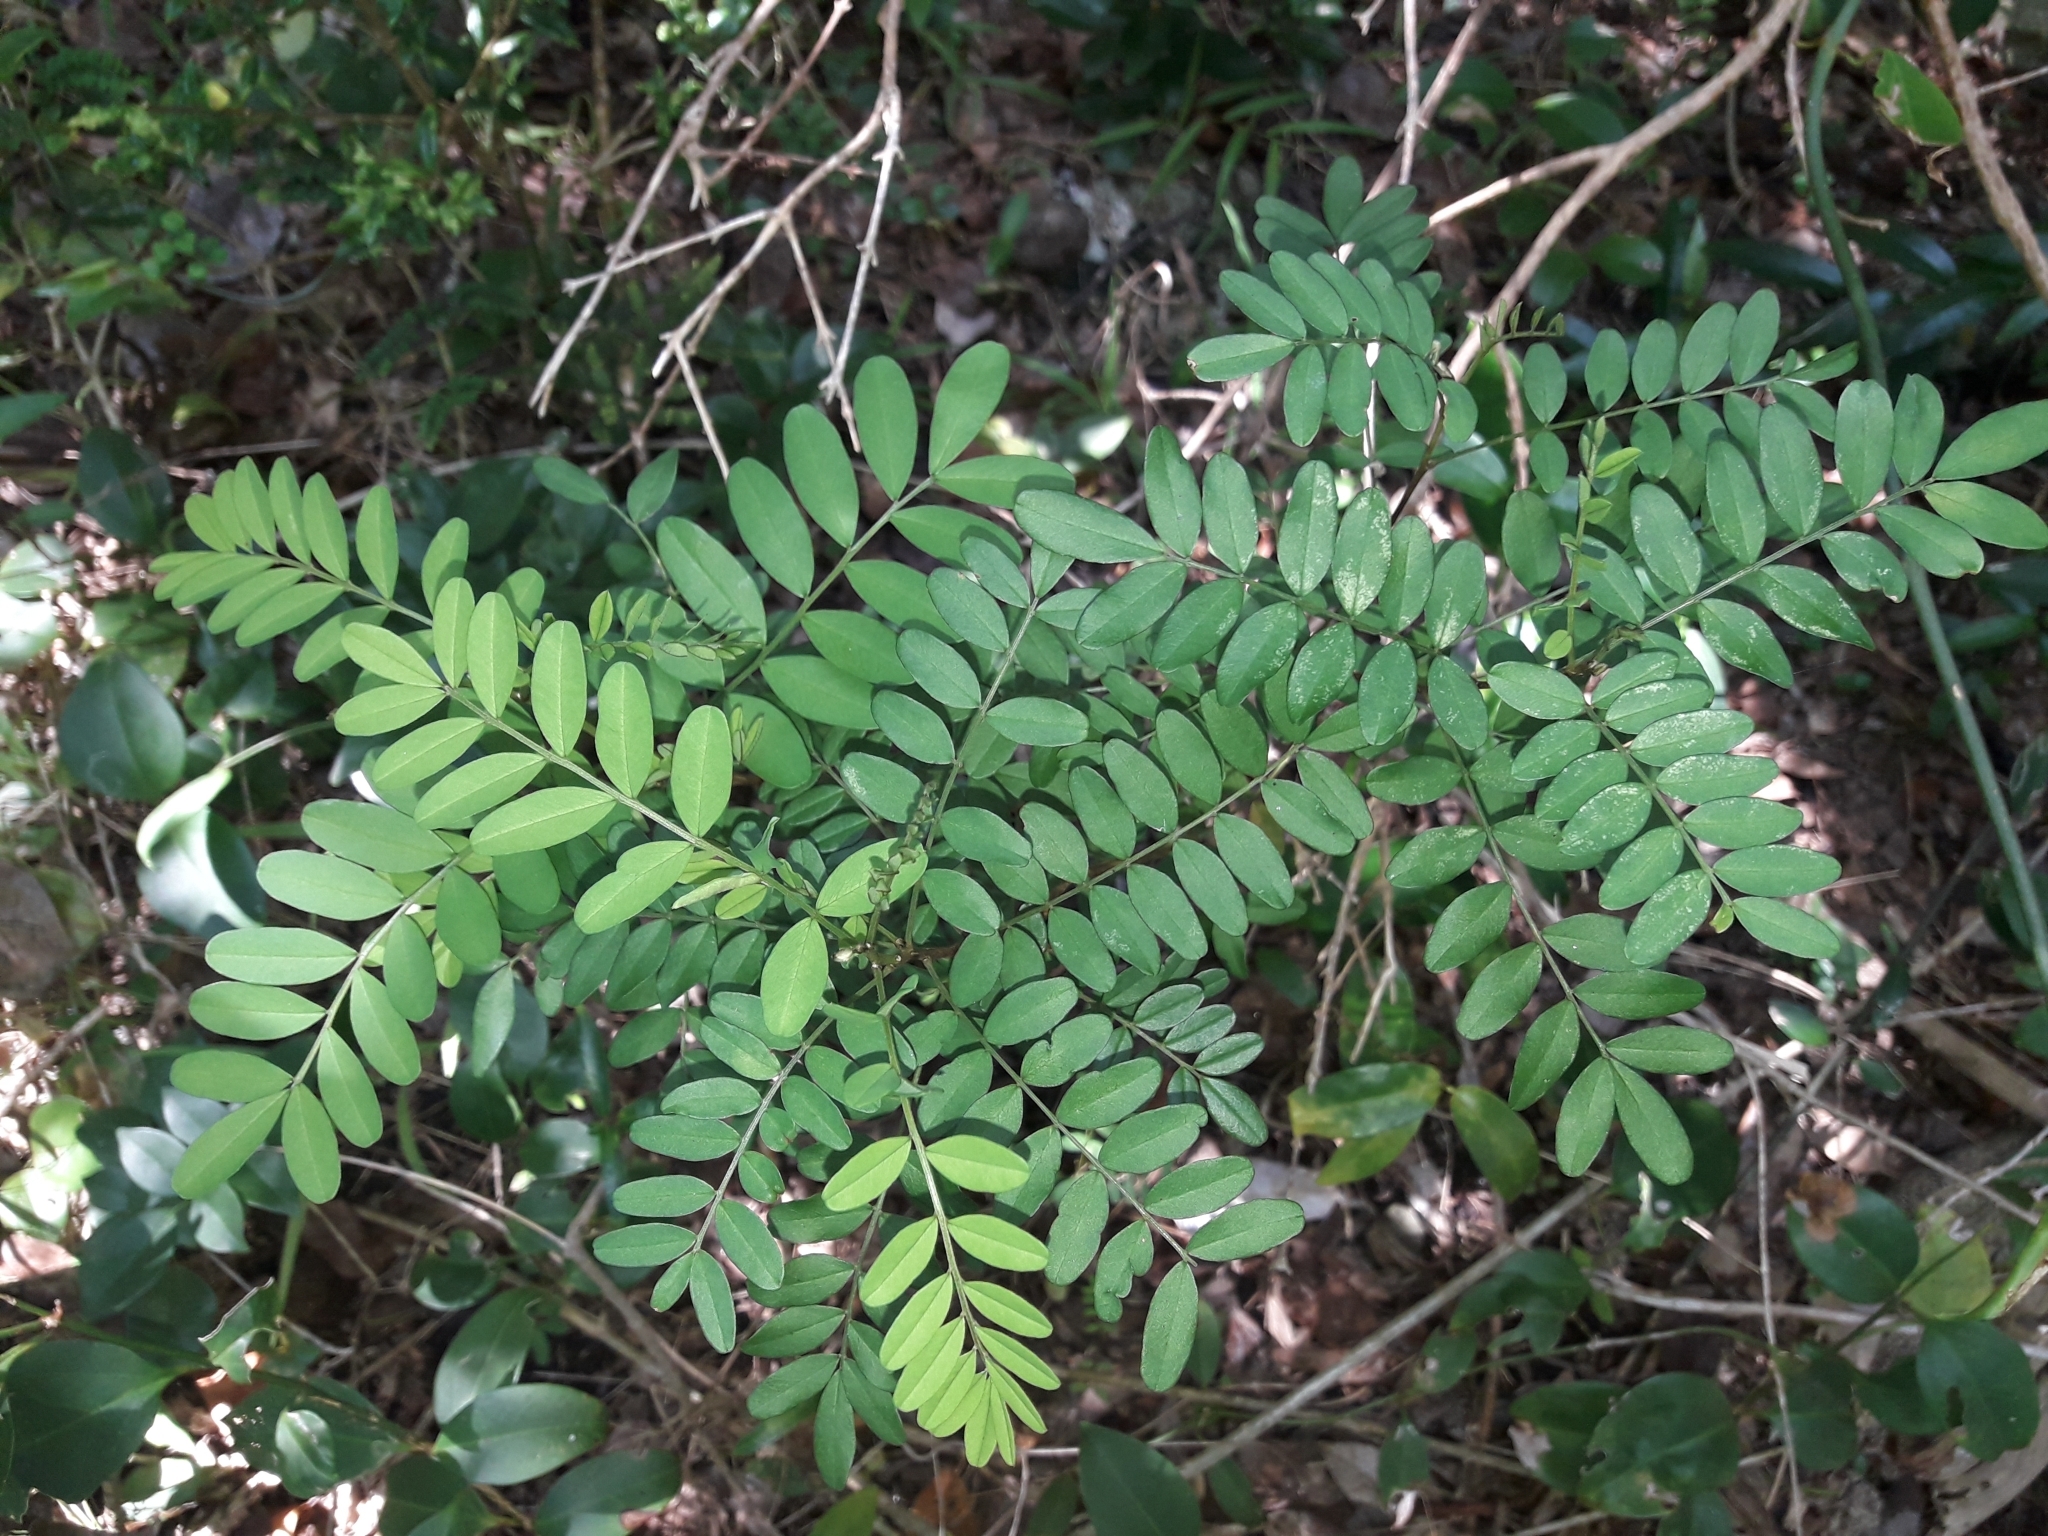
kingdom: Plantae
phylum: Tracheophyta
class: Magnoliopsida
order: Fabales
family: Fabaceae
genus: Sophora
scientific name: Sophora howinsula
